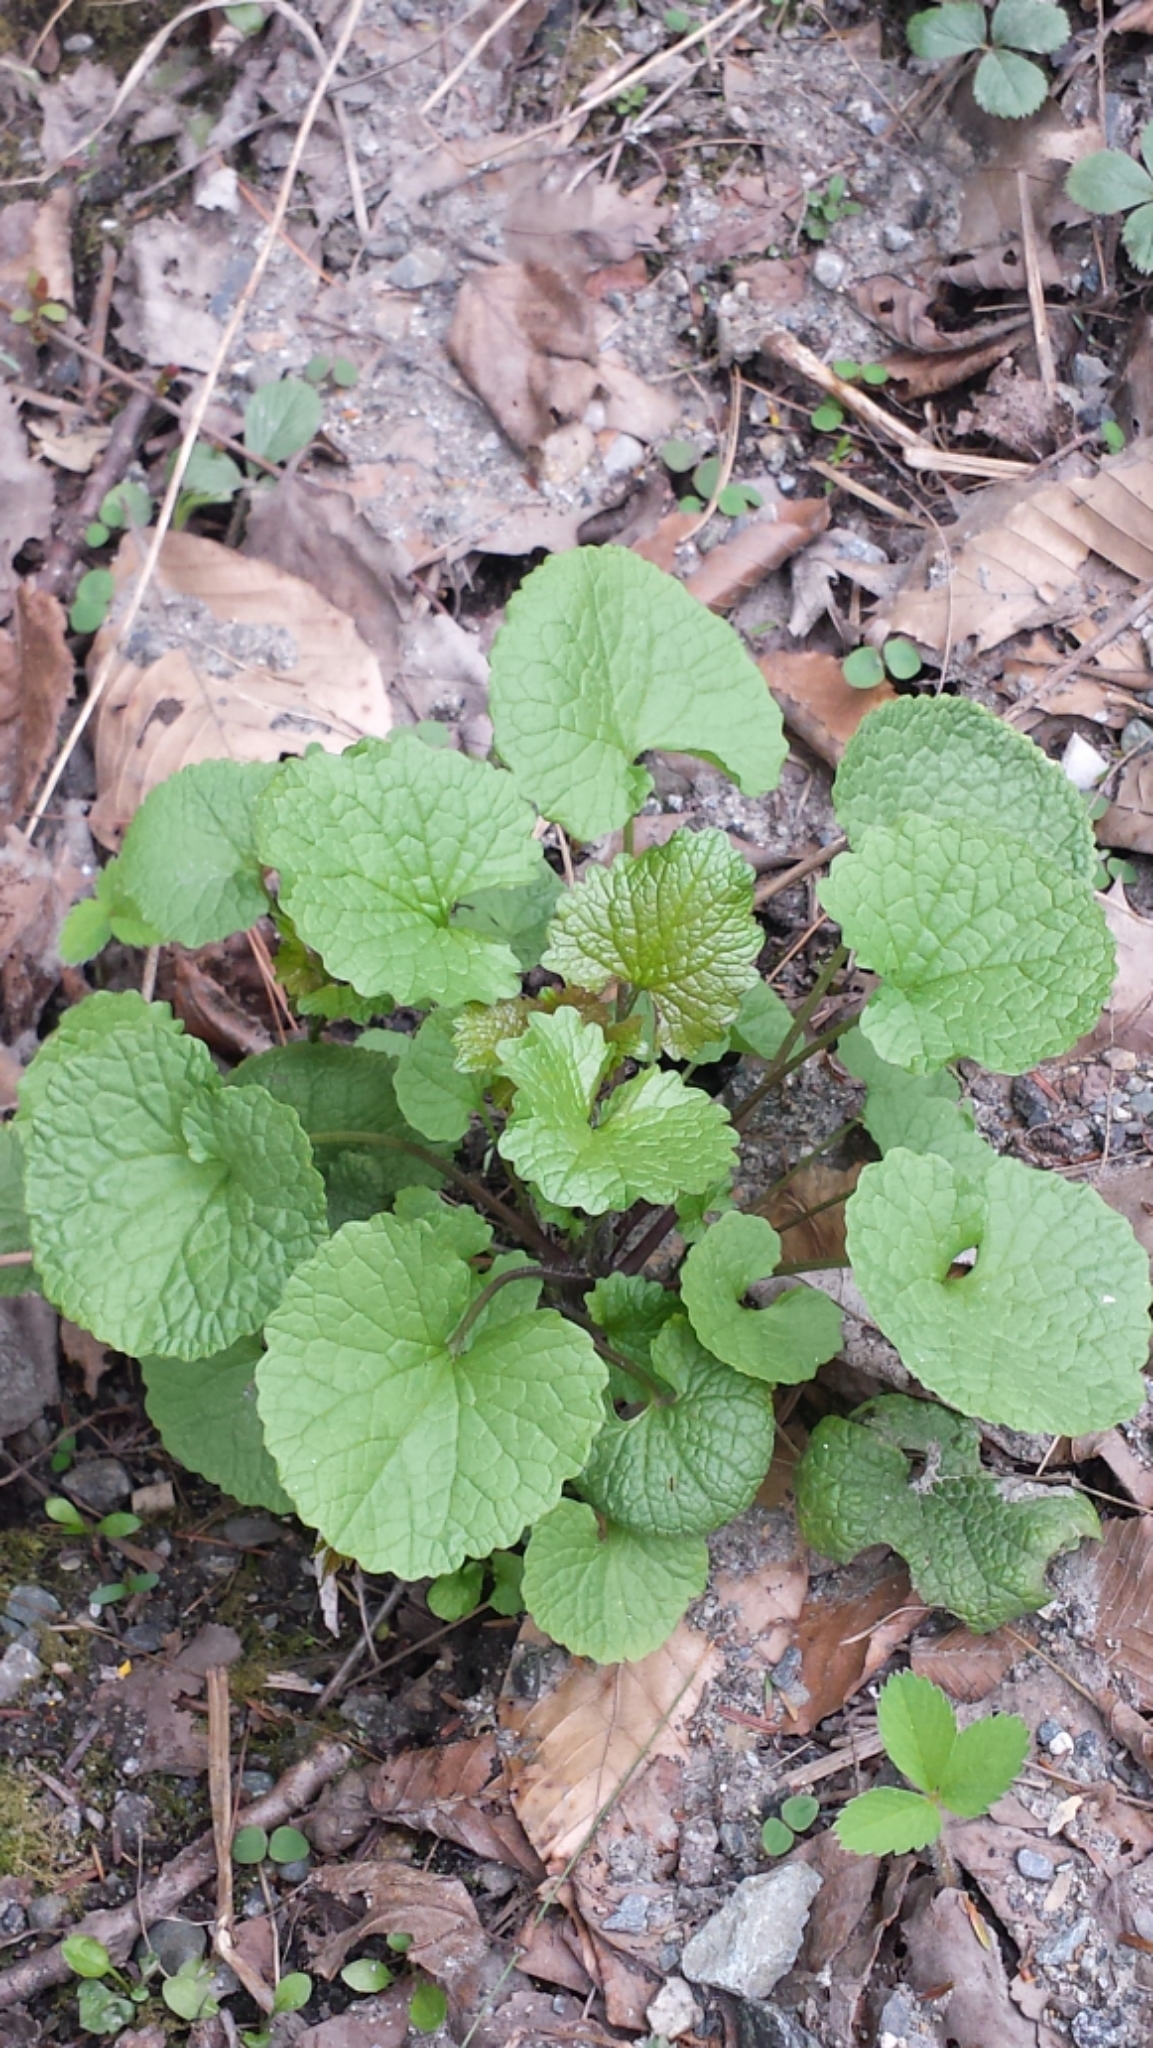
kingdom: Plantae
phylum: Tracheophyta
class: Magnoliopsida
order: Brassicales
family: Brassicaceae
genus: Alliaria
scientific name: Alliaria petiolata
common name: Garlic mustard
